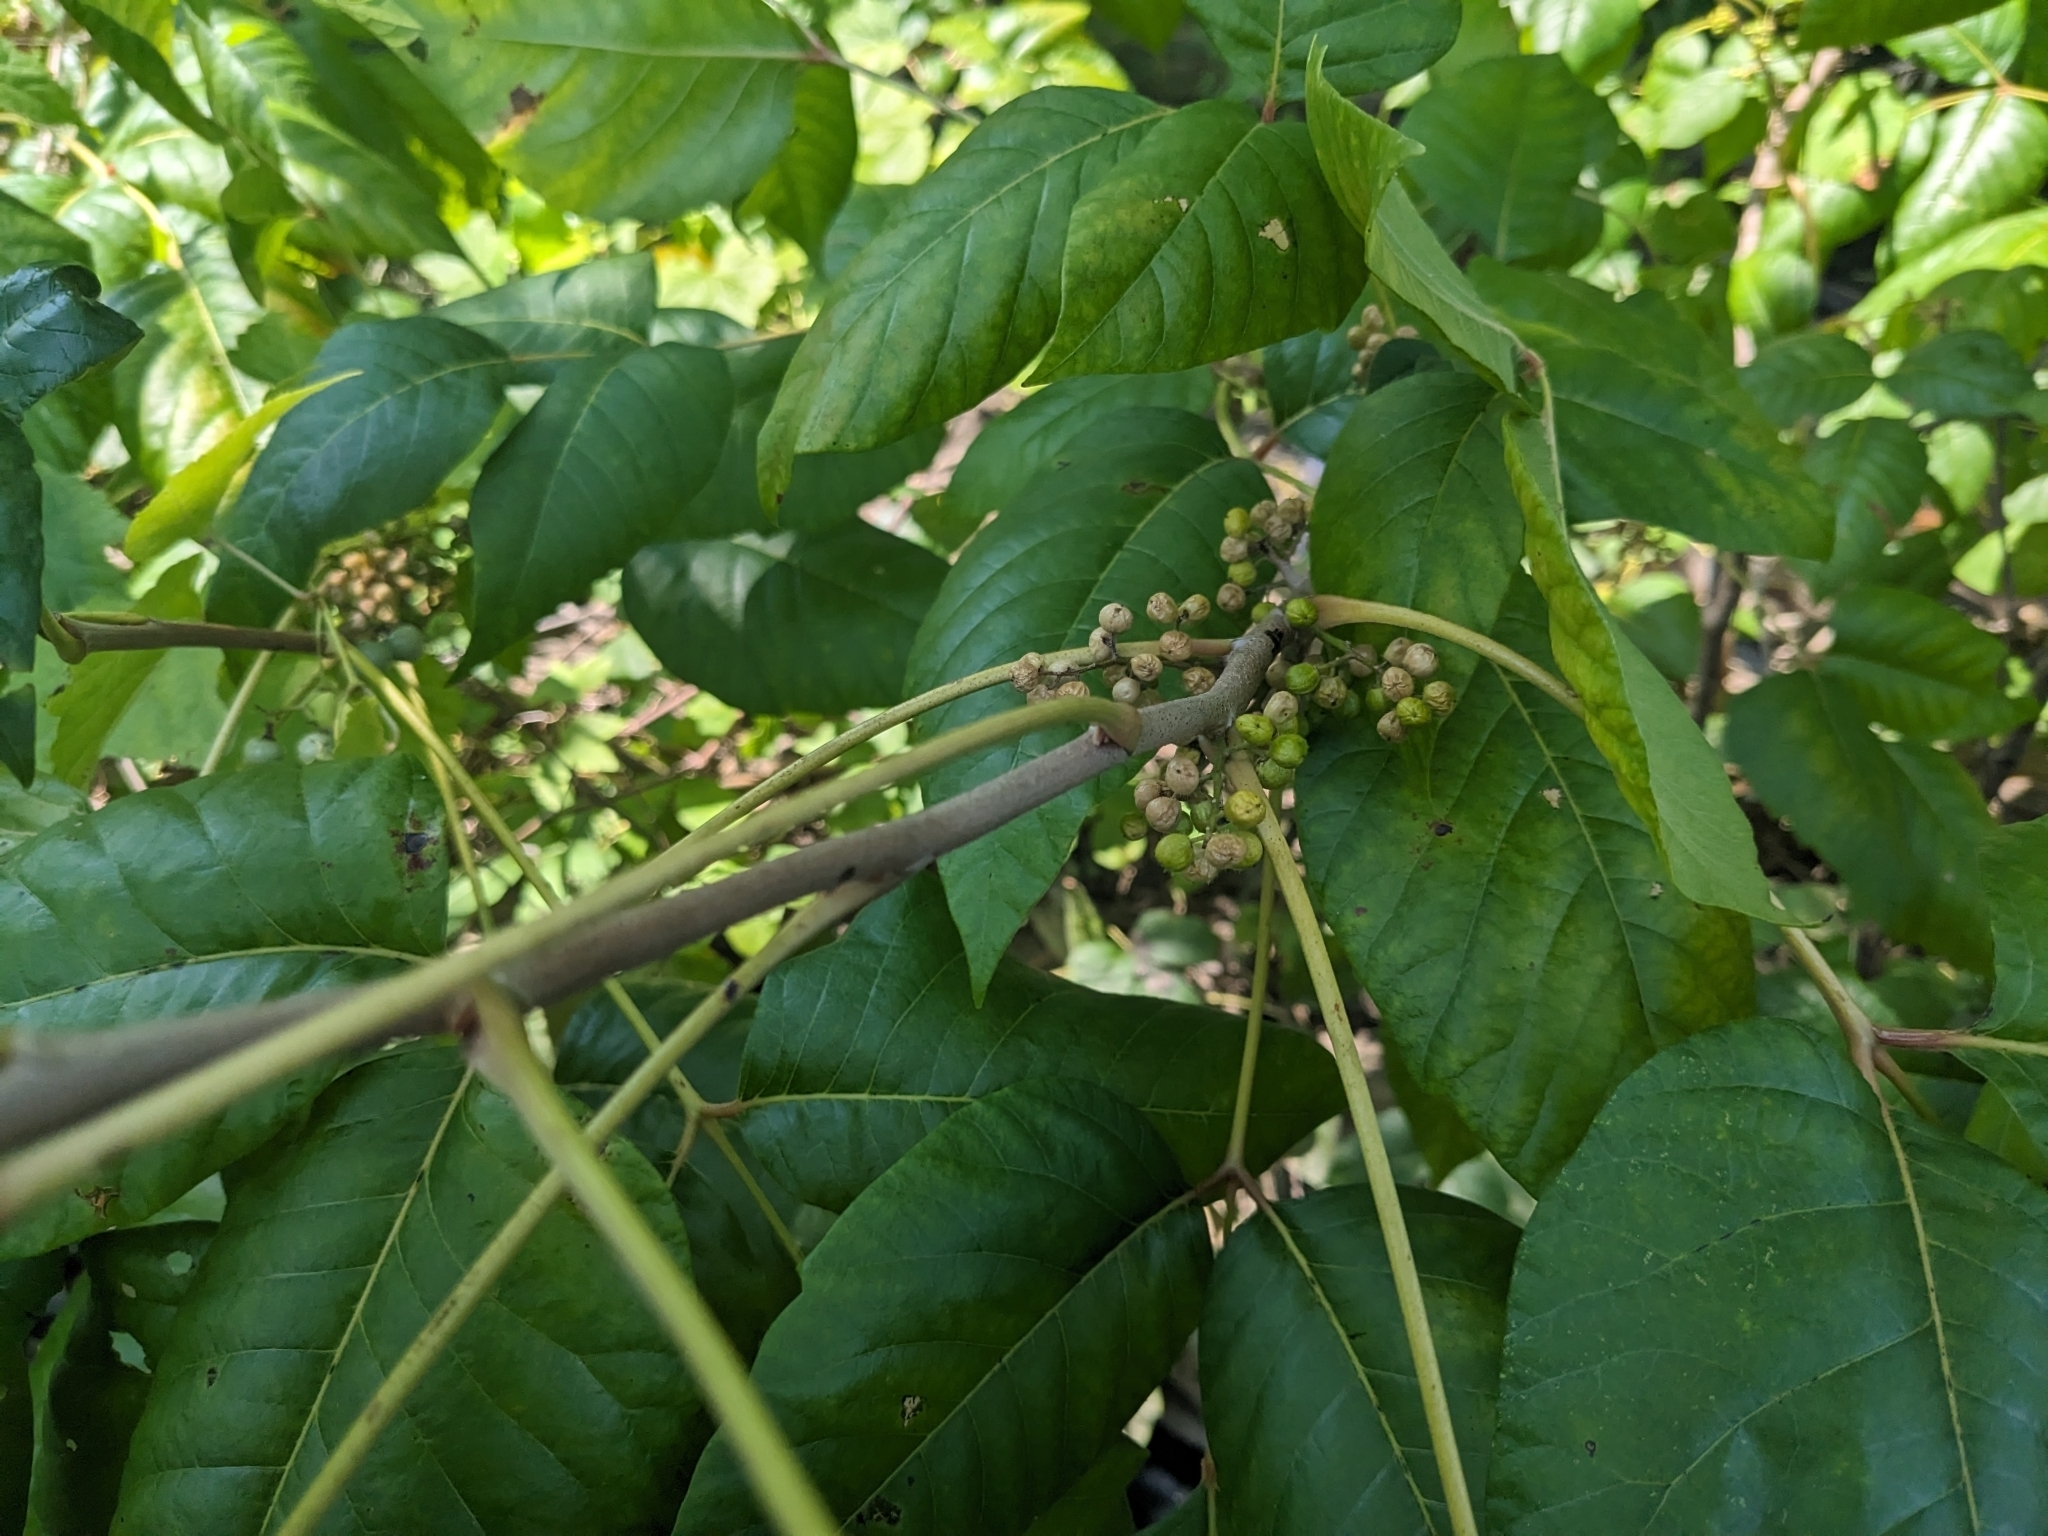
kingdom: Plantae
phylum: Tracheophyta
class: Magnoliopsida
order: Sapindales
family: Anacardiaceae
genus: Toxicodendron
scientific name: Toxicodendron radicans
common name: Poison ivy
